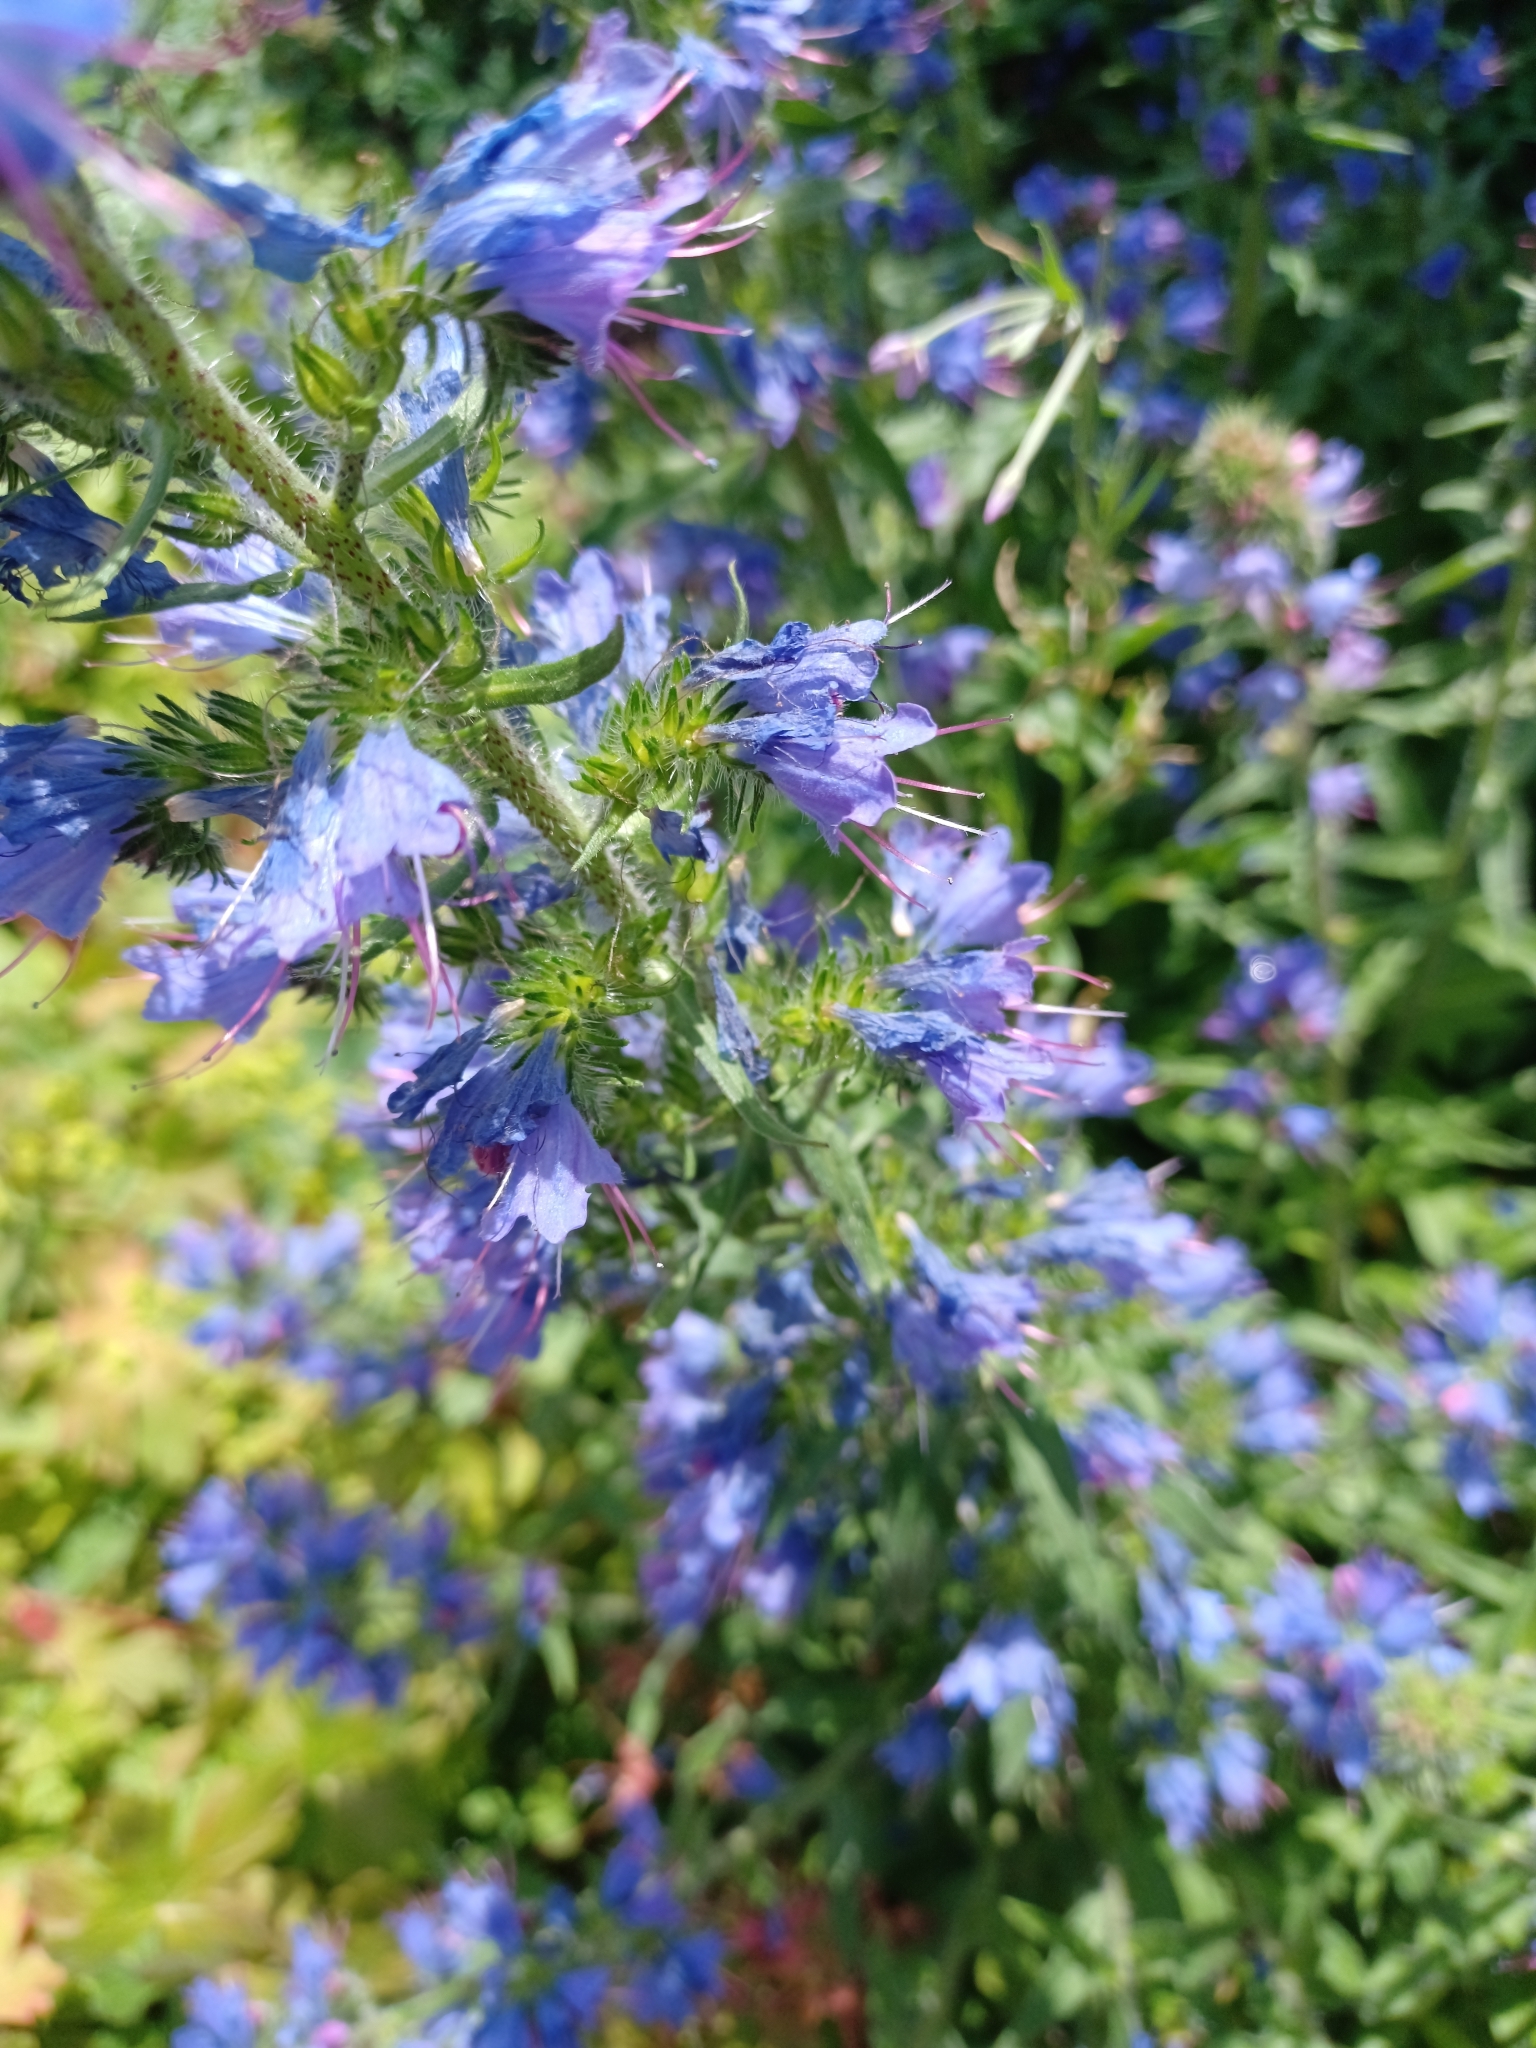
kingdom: Plantae
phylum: Tracheophyta
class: Magnoliopsida
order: Boraginales
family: Boraginaceae
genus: Echium
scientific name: Echium vulgare
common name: Common viper's bugloss
